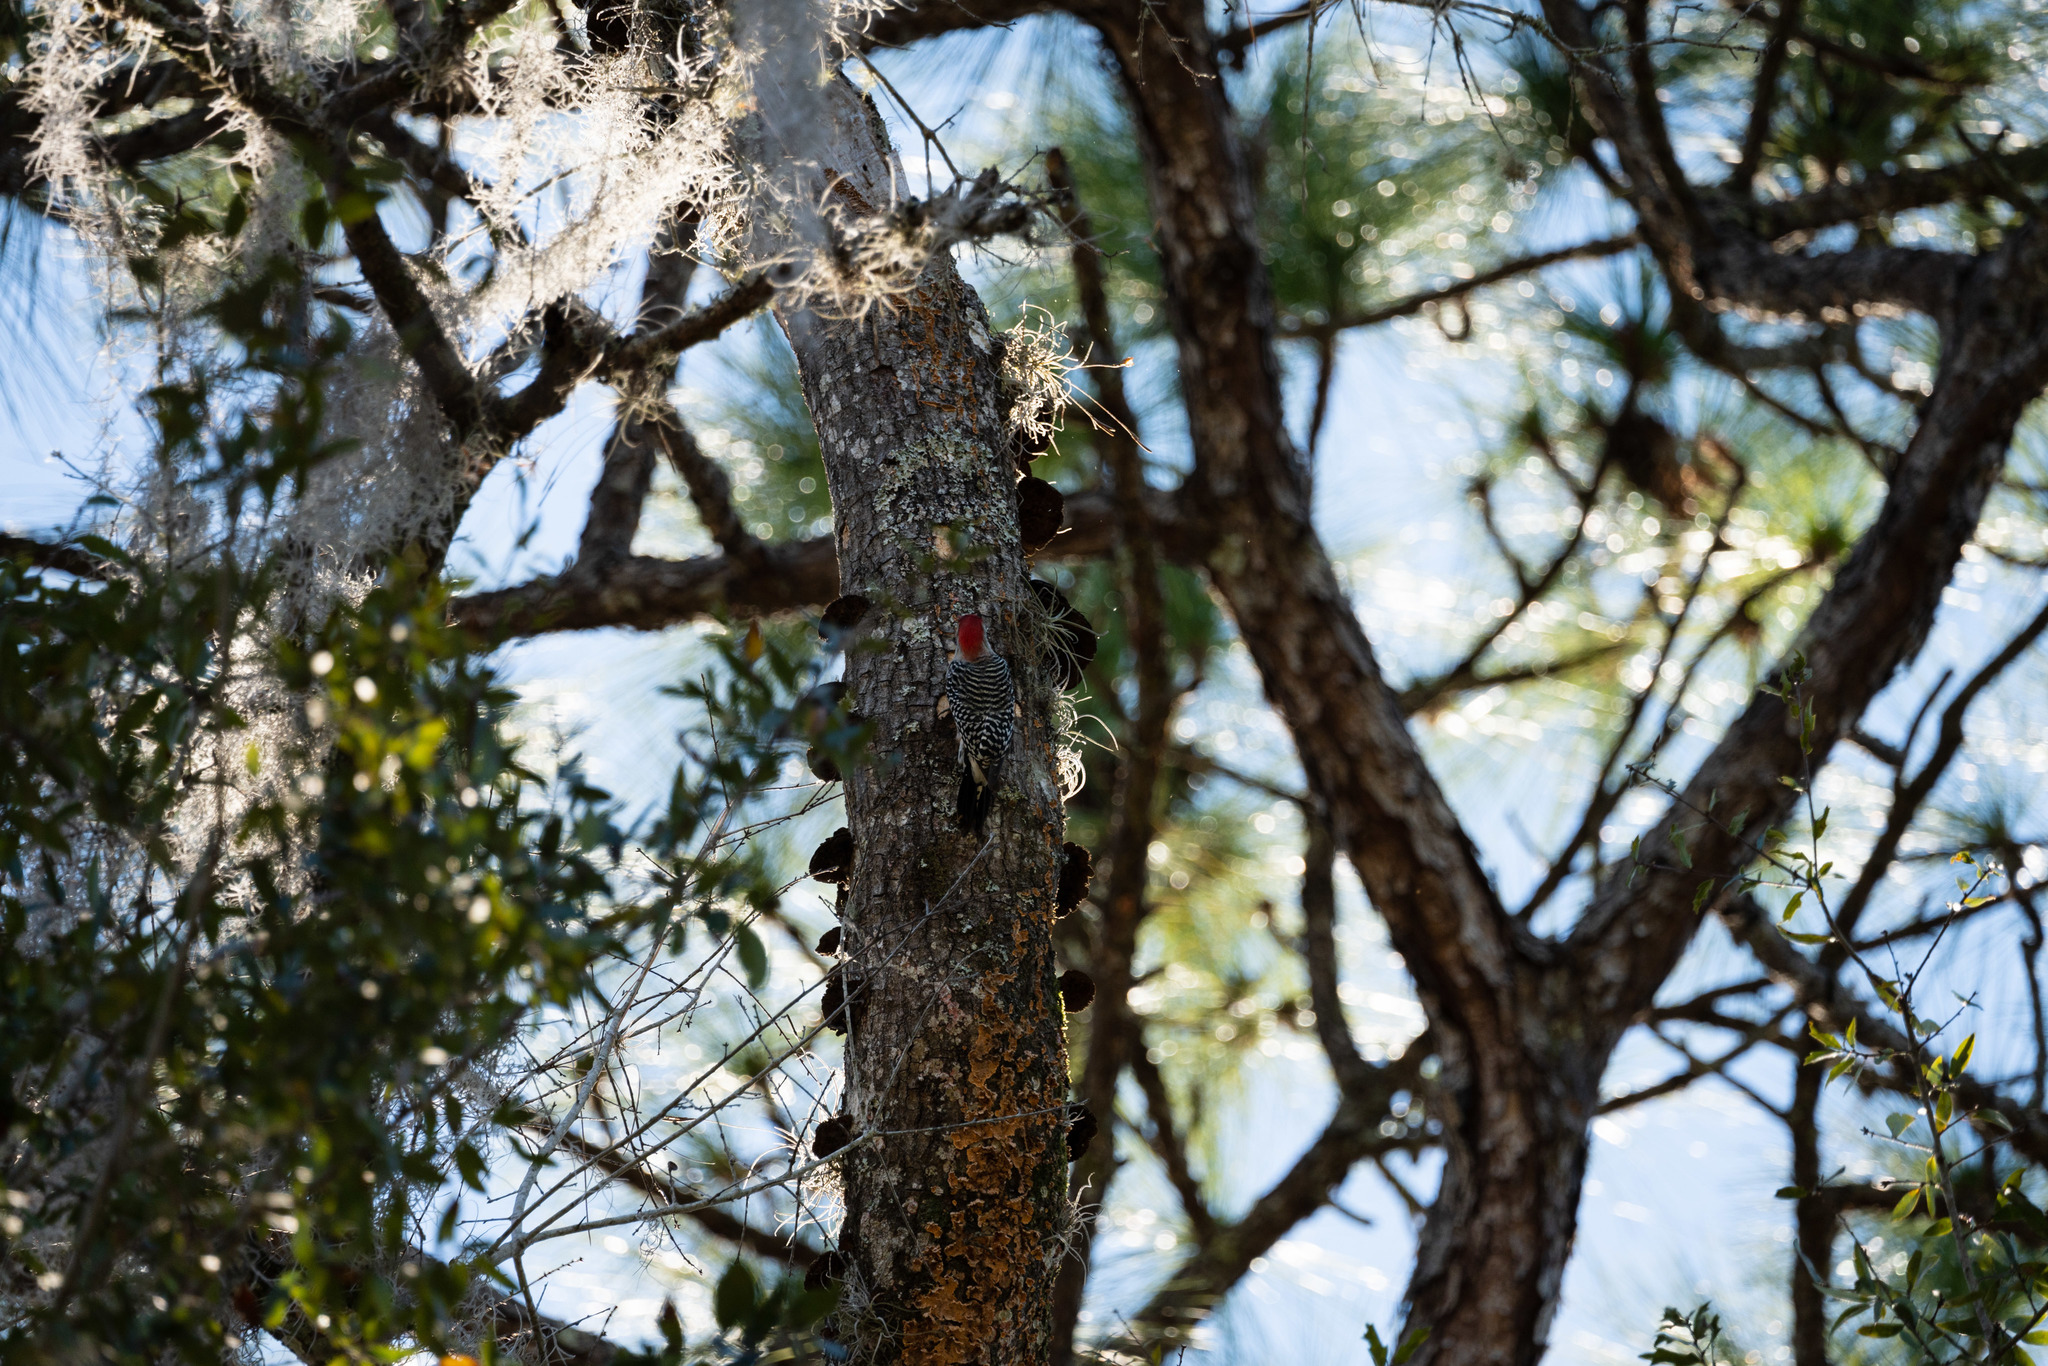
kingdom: Animalia
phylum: Chordata
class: Aves
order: Piciformes
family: Picidae
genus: Melanerpes
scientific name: Melanerpes carolinus
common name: Red-bellied woodpecker
